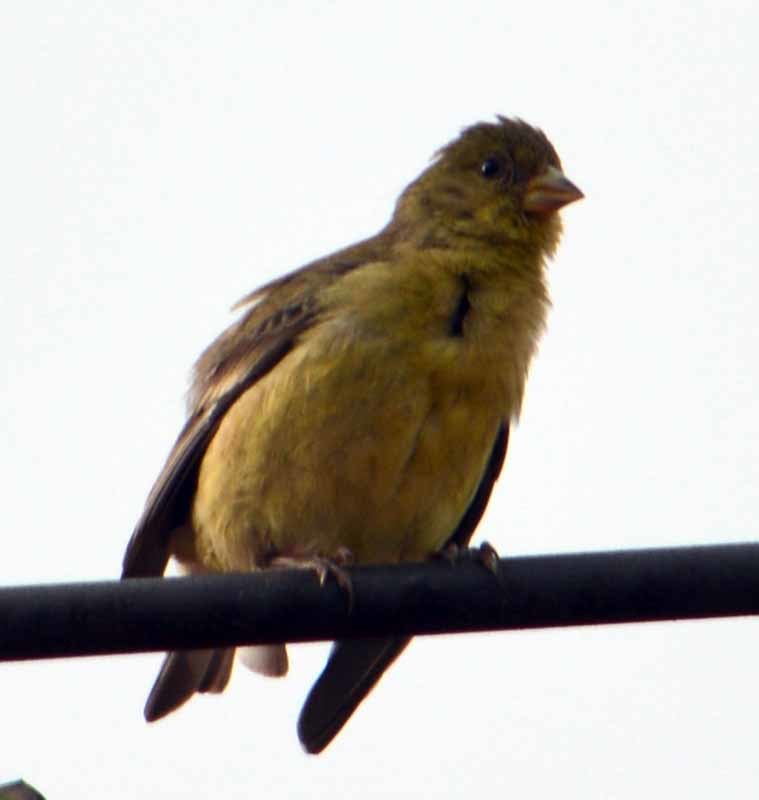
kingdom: Animalia
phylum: Chordata
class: Aves
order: Passeriformes
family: Fringillidae
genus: Spinus
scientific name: Spinus psaltria
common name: Lesser goldfinch
